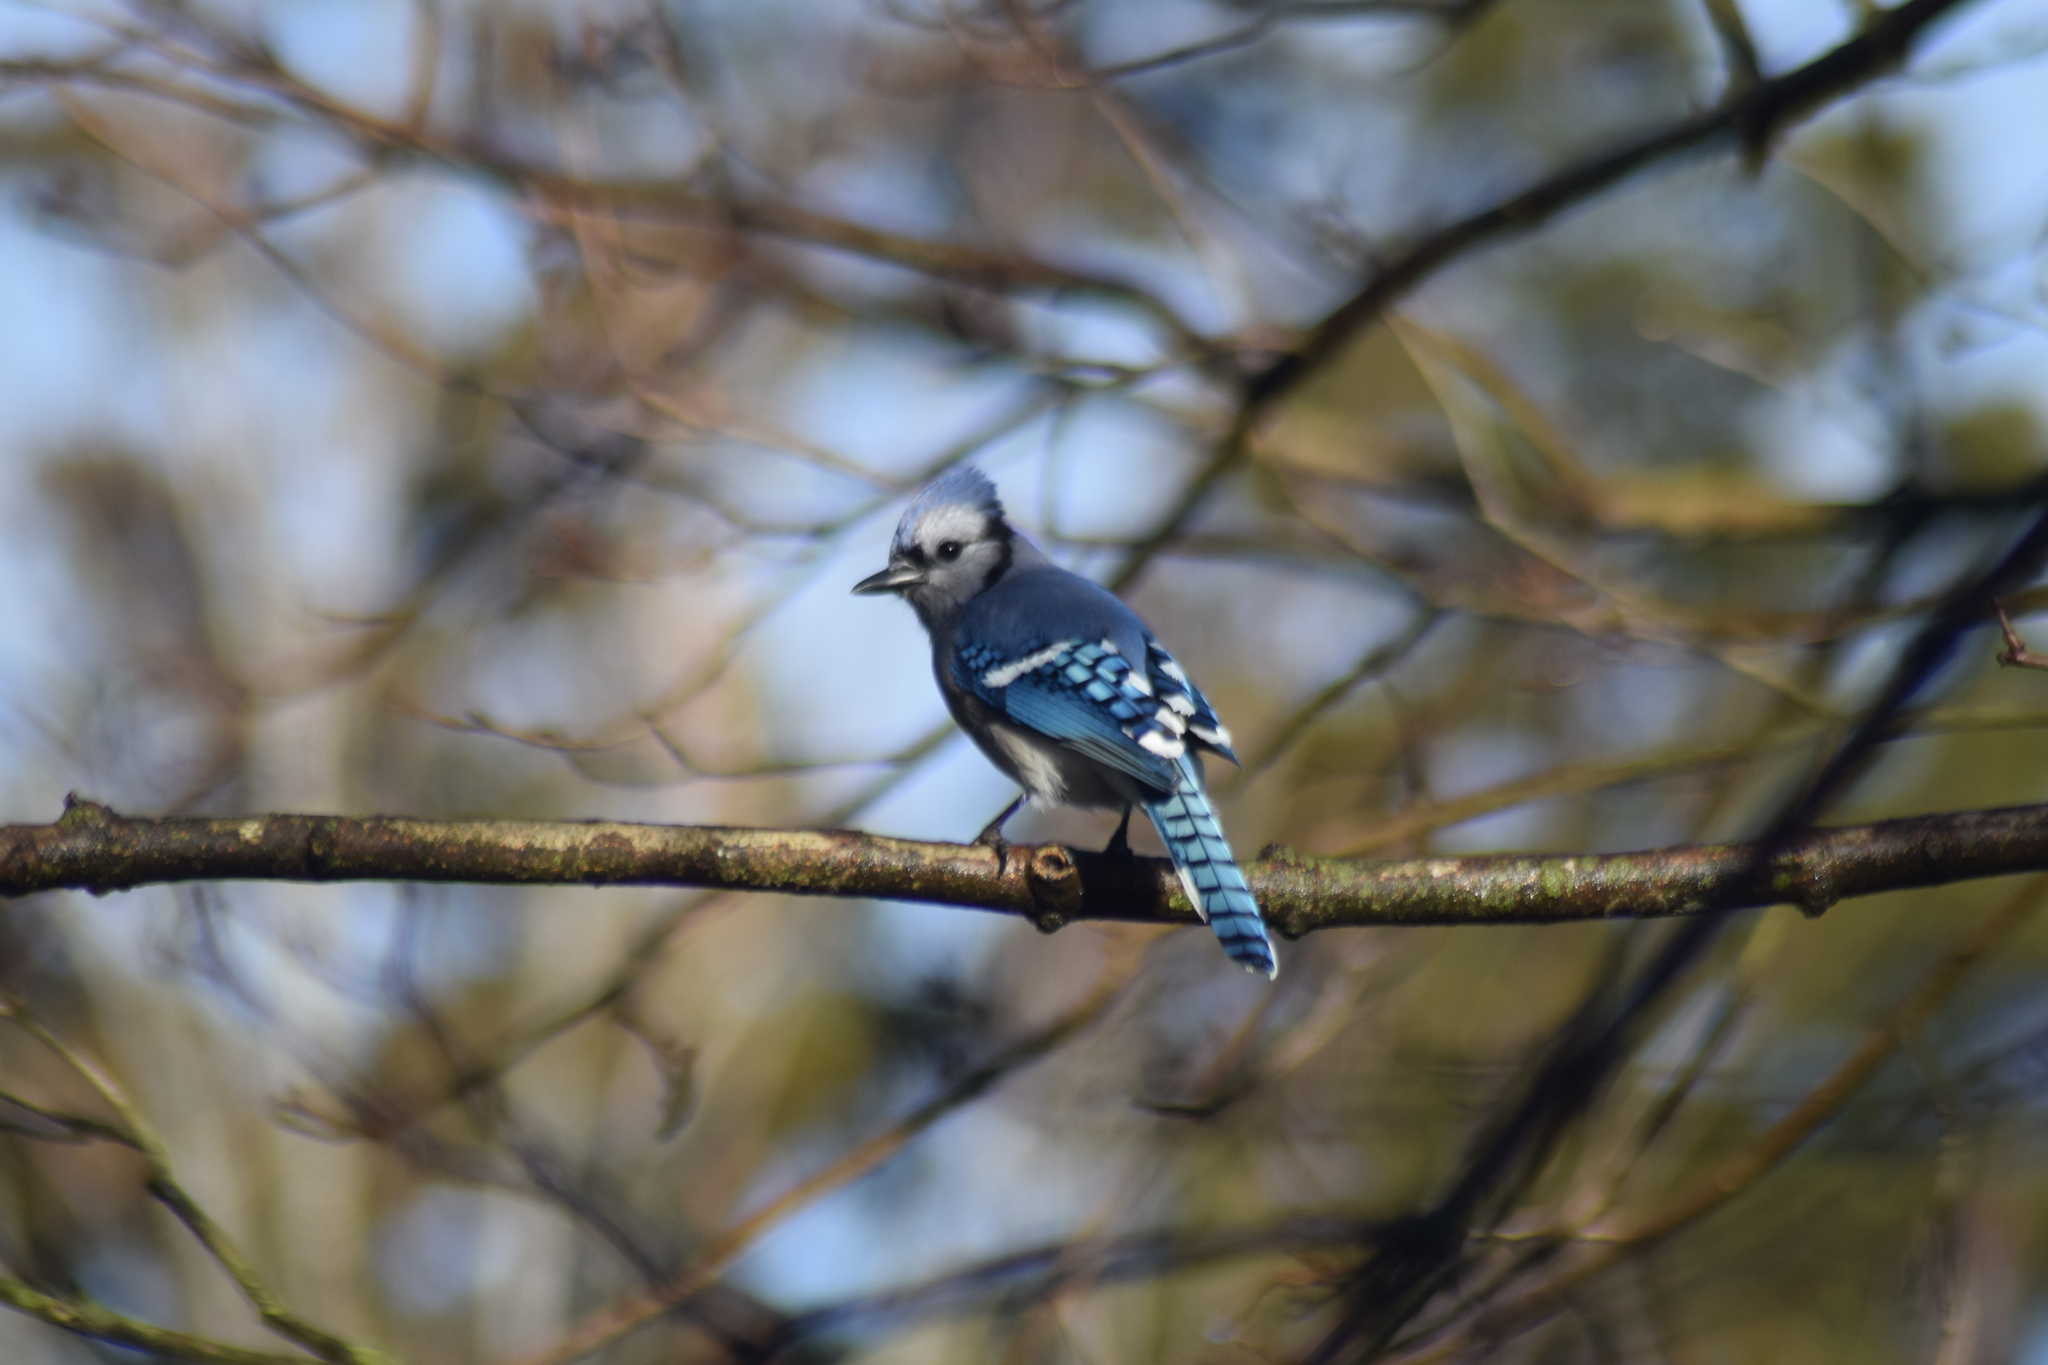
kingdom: Animalia
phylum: Chordata
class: Aves
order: Passeriformes
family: Corvidae
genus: Cyanocitta
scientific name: Cyanocitta cristata
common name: Blue jay
